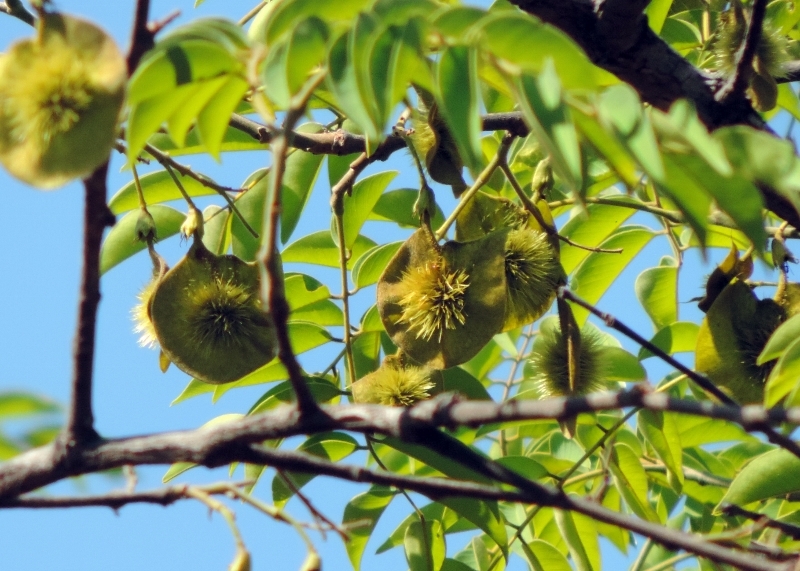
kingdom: Plantae
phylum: Tracheophyta
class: Magnoliopsida
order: Fabales
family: Fabaceae
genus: Pterocarpus
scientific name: Pterocarpus angolensis
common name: Bloodwood tree
